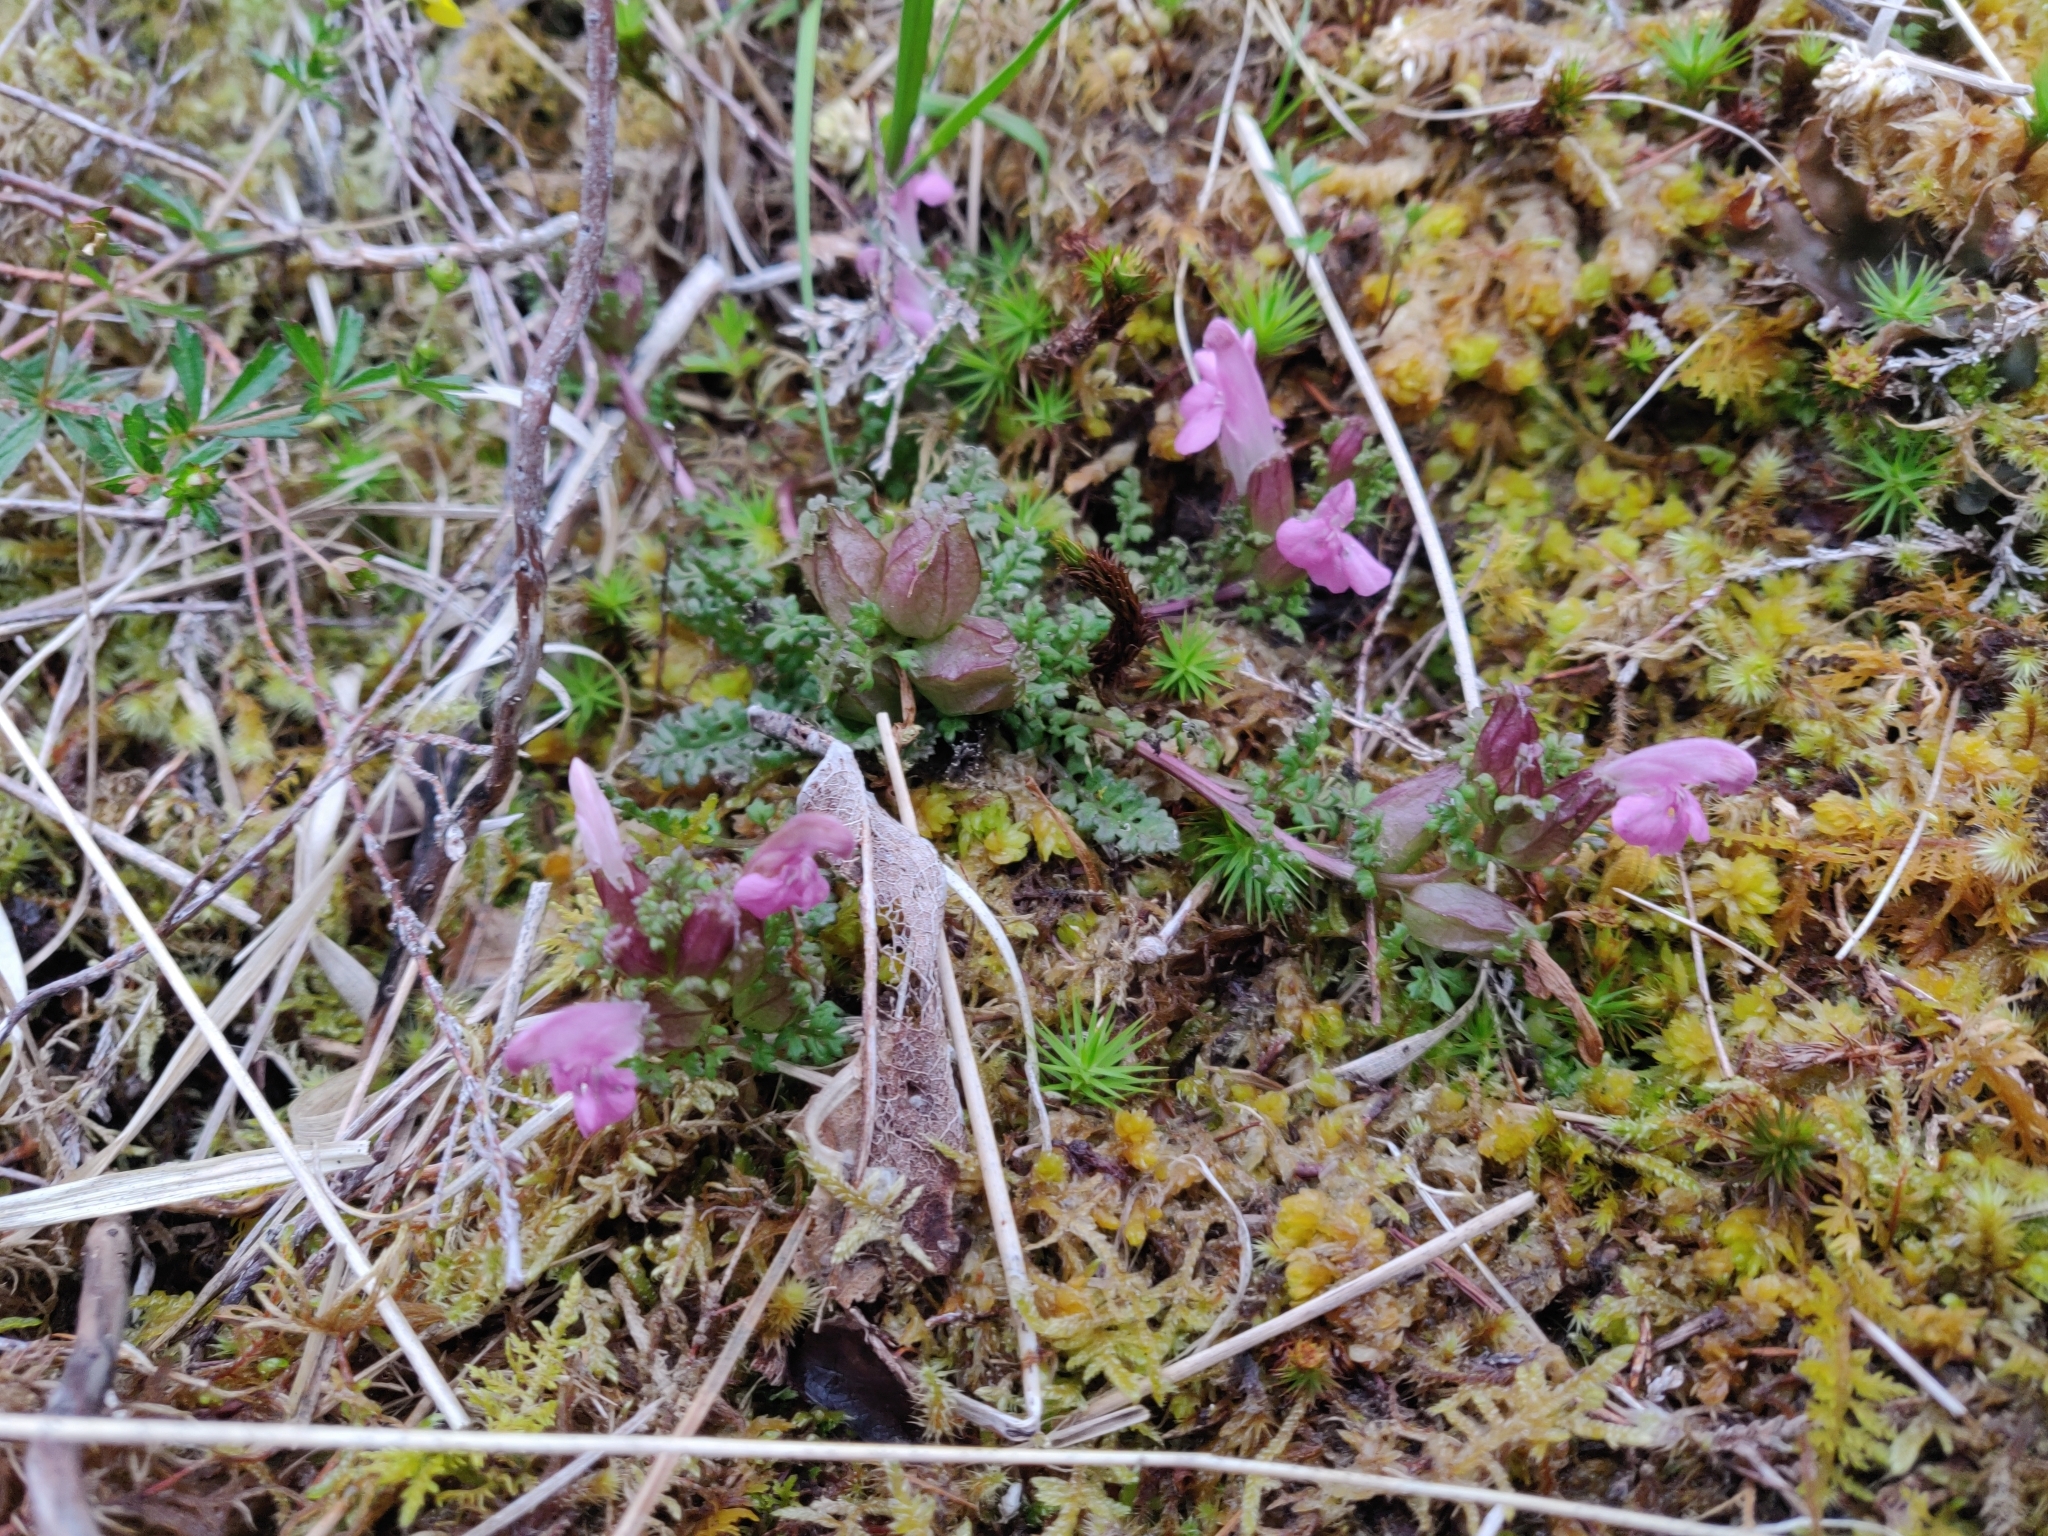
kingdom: Plantae
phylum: Tracheophyta
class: Magnoliopsida
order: Lamiales
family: Orobanchaceae
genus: Pedicularis
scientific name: Pedicularis sylvatica
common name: Lousewort
